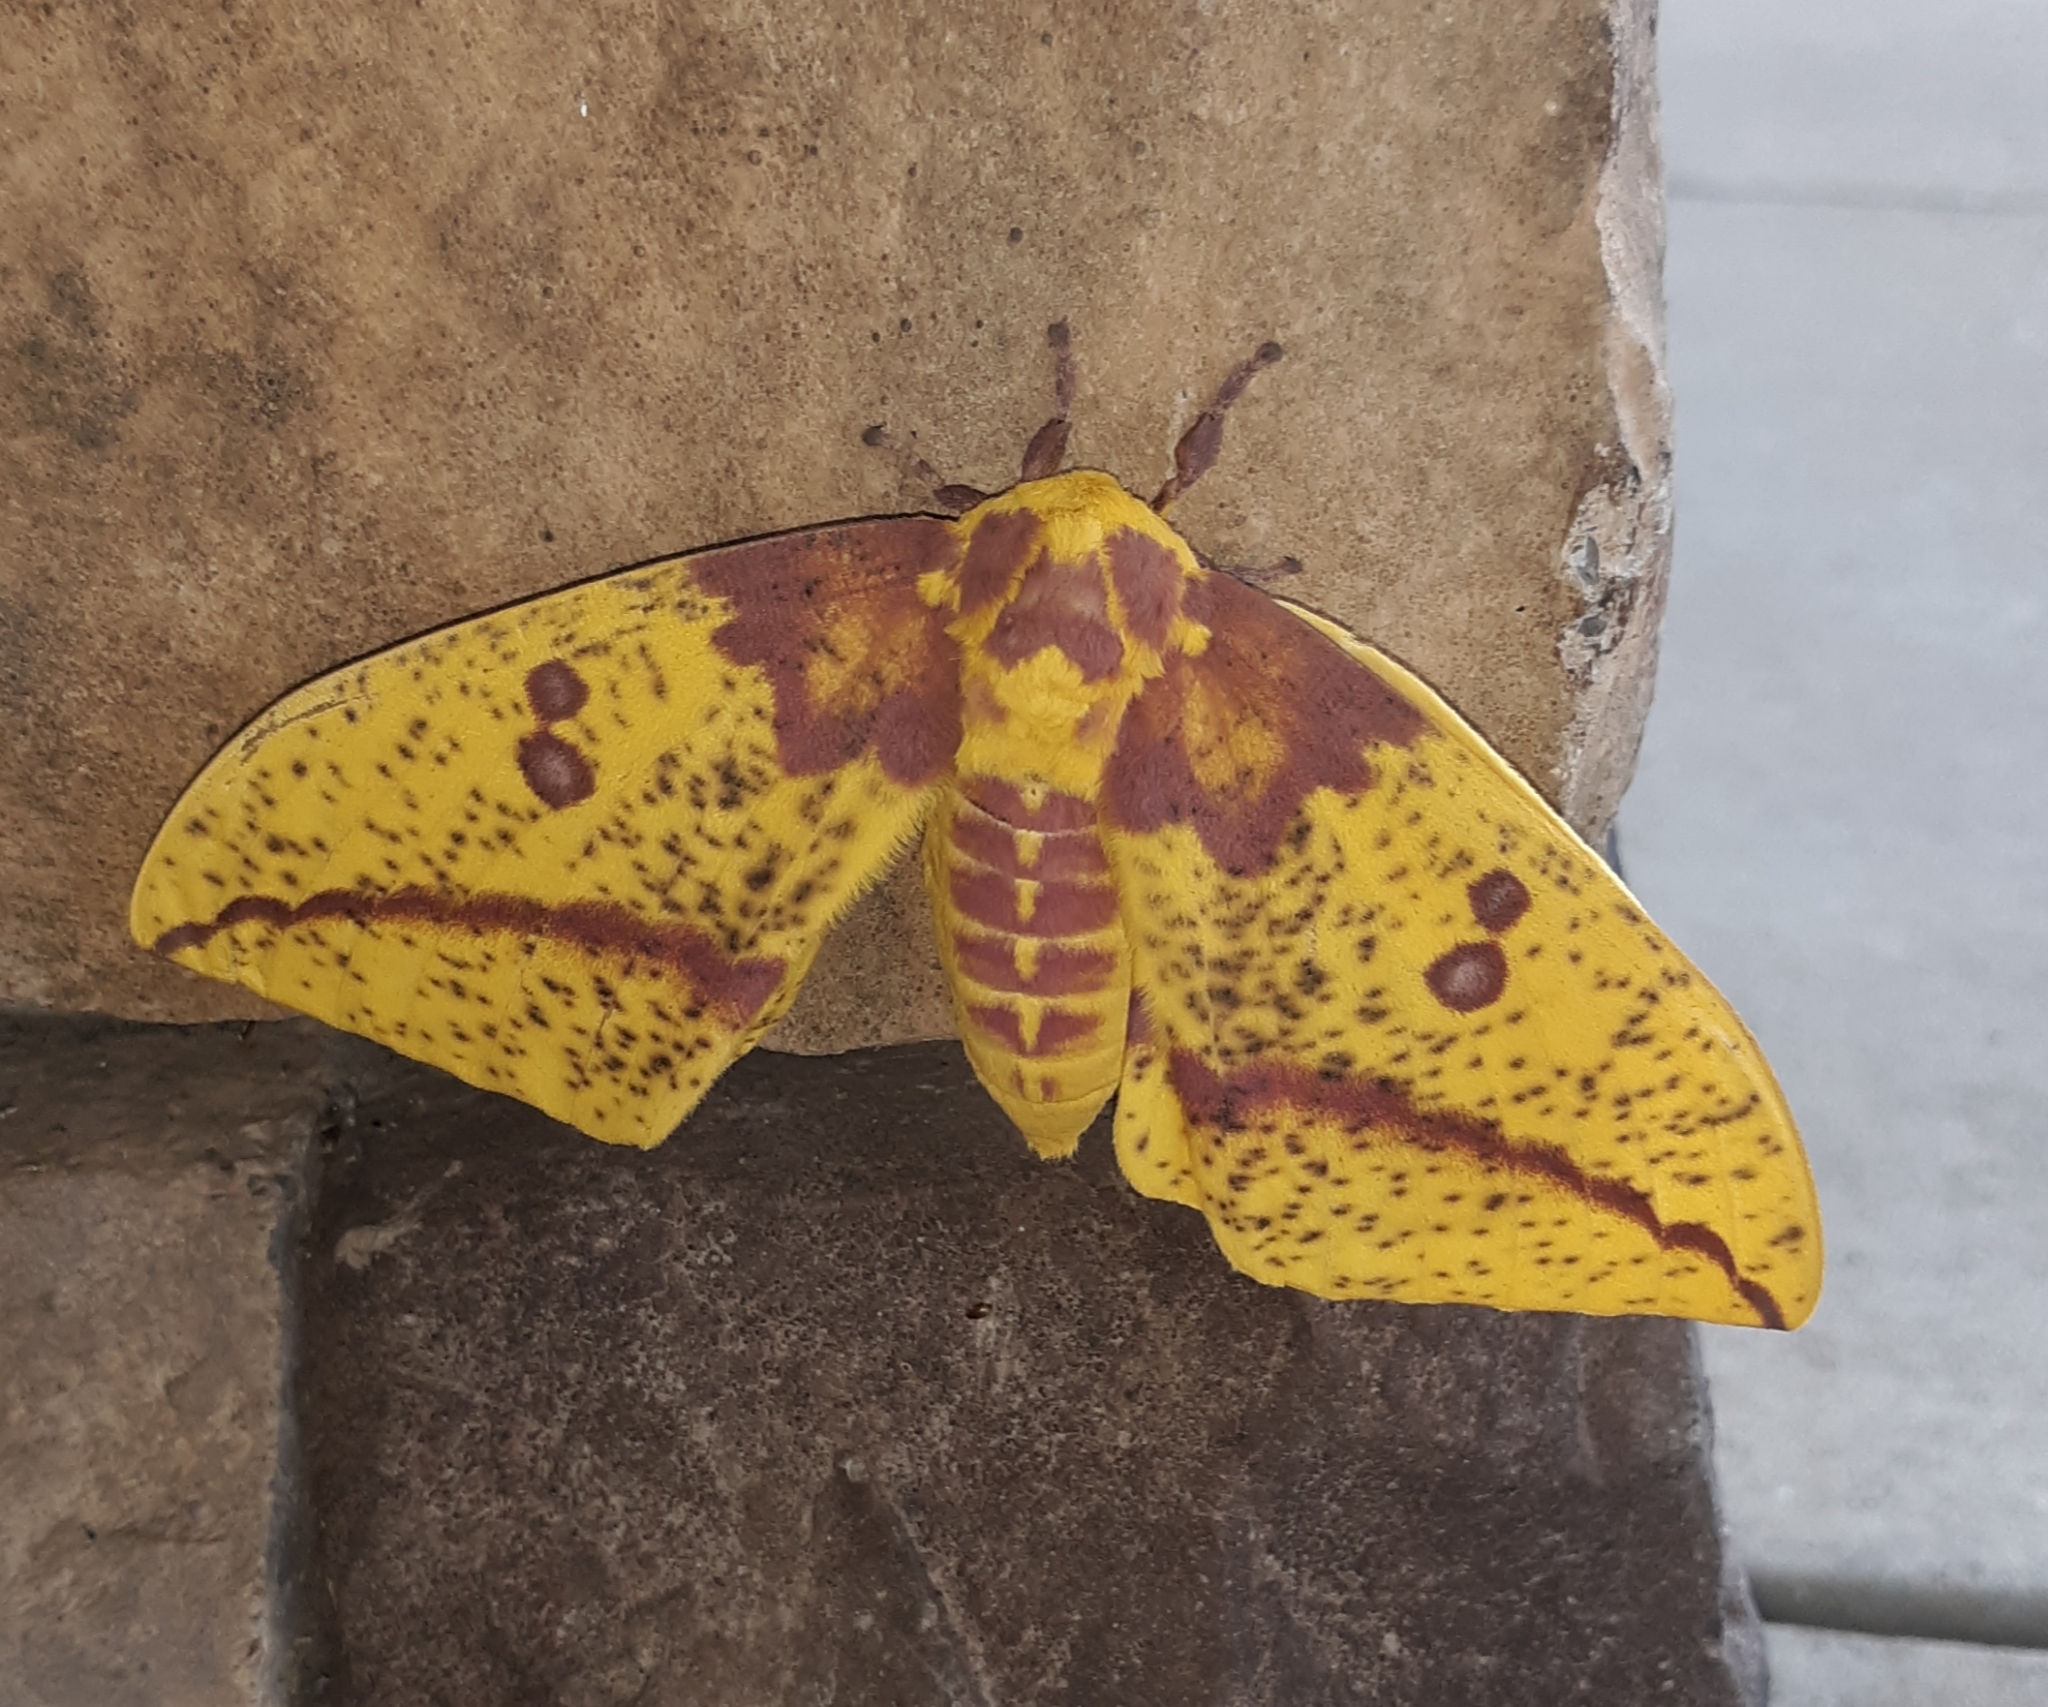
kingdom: Animalia
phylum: Arthropoda
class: Insecta
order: Lepidoptera
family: Saturniidae
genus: Eacles
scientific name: Eacles imperialis
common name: Imperial moth
